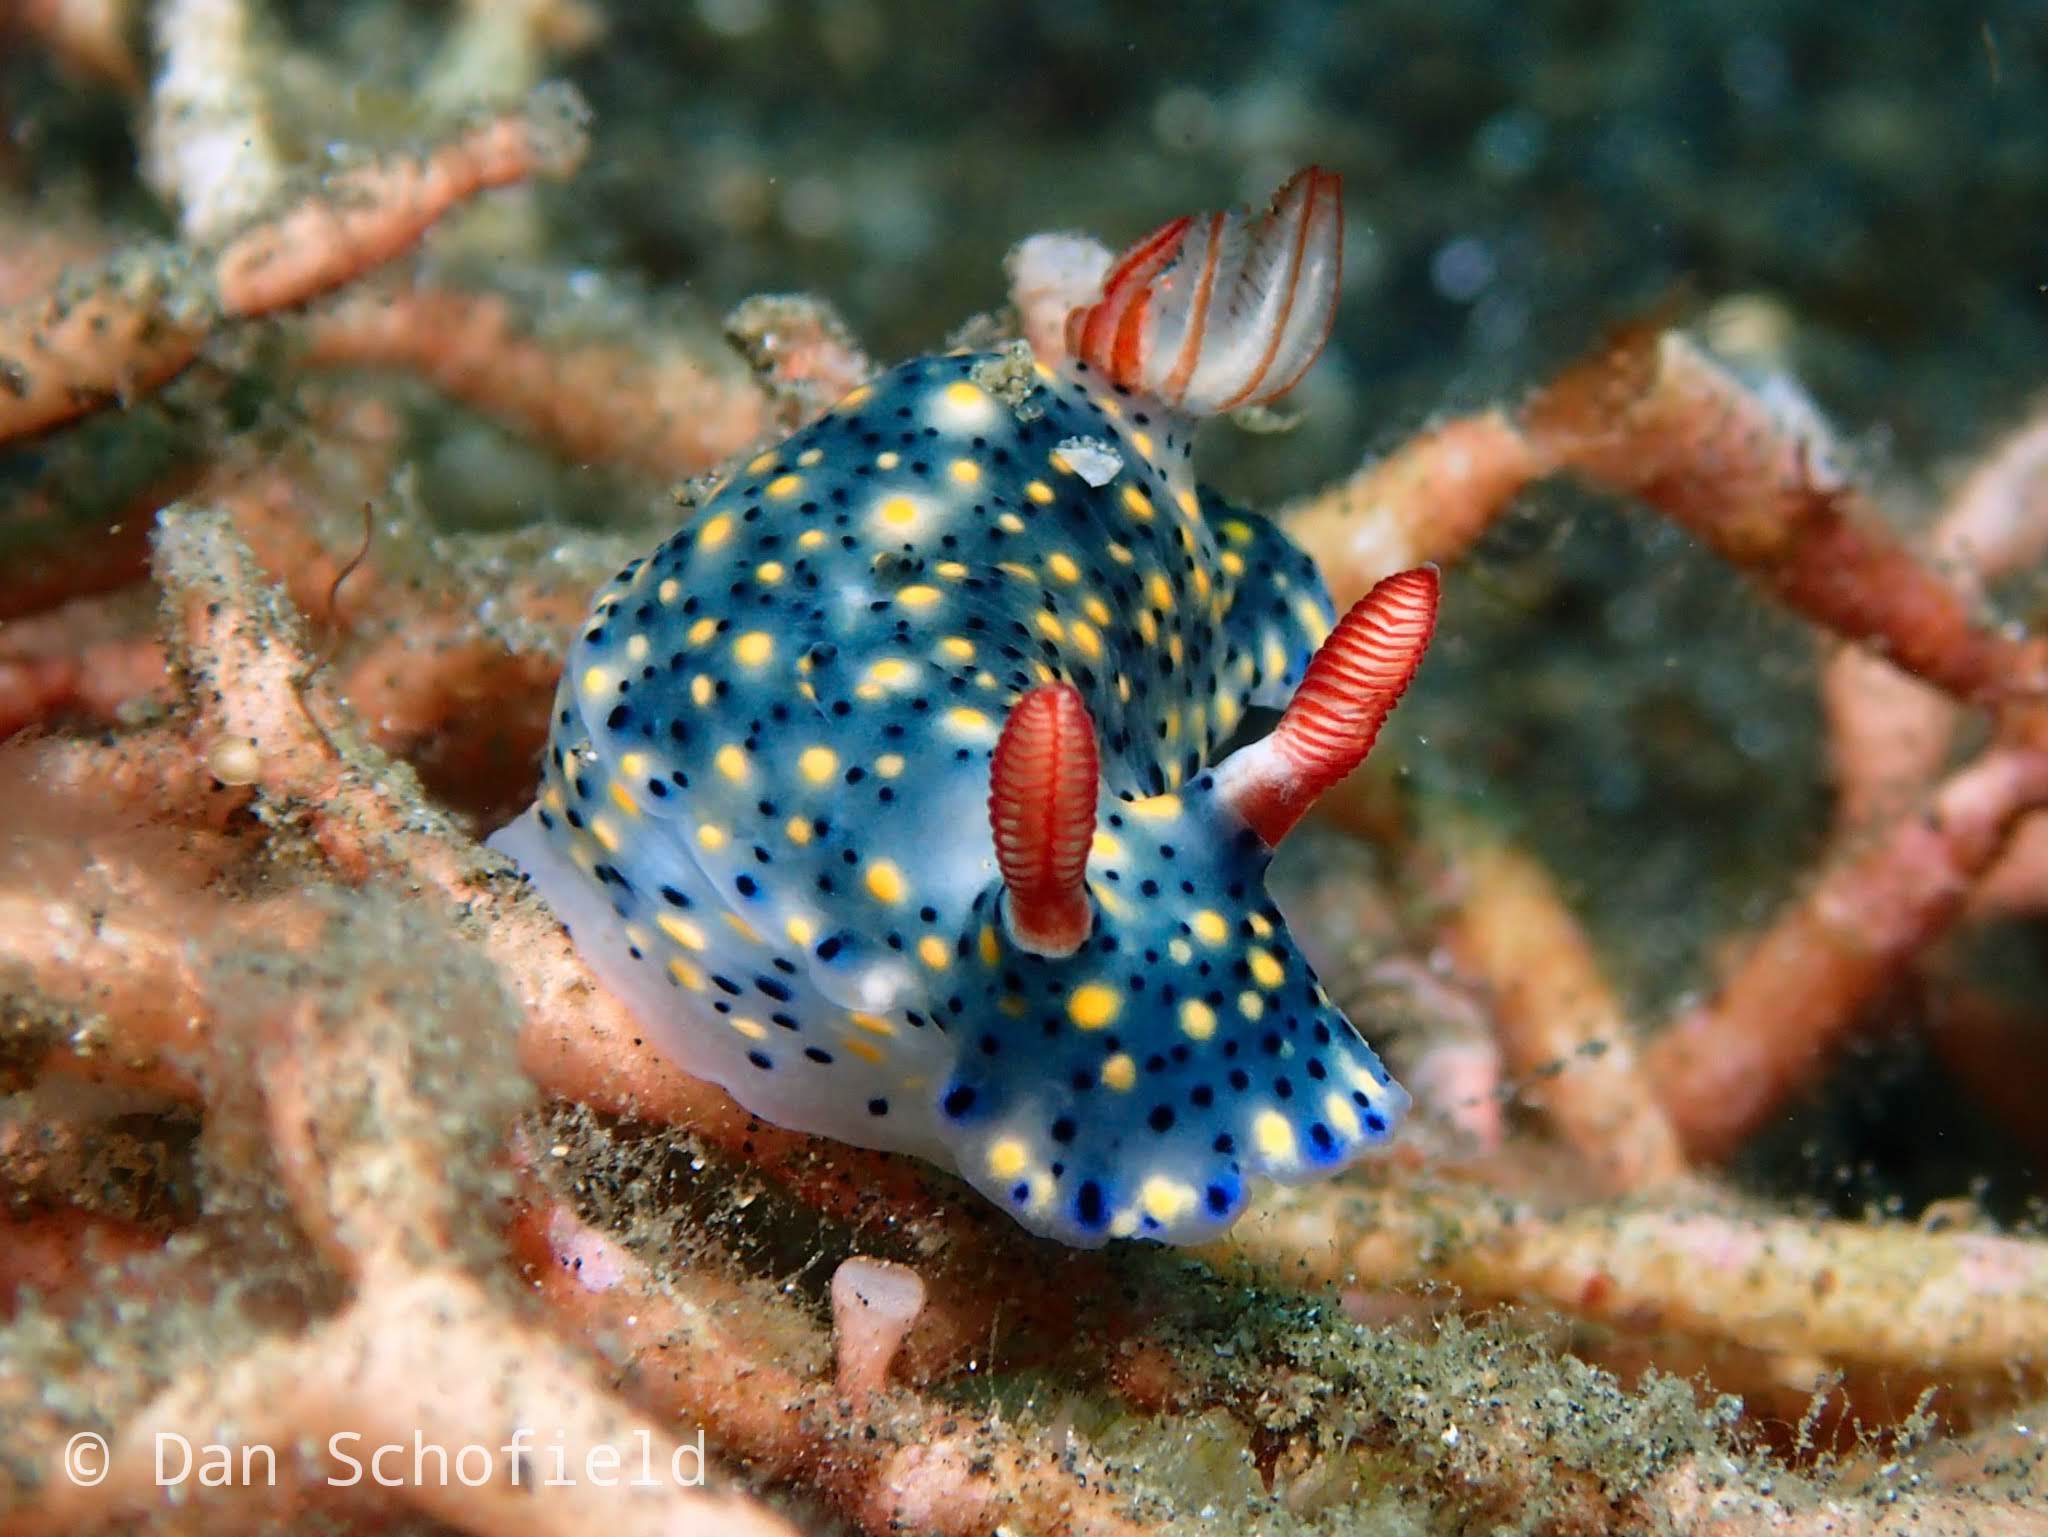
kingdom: Animalia
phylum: Mollusca
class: Gastropoda
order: Nudibranchia
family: Chromodorididae
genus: Hypselodoris
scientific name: Hypselodoris infucata
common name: Mottled dorid
